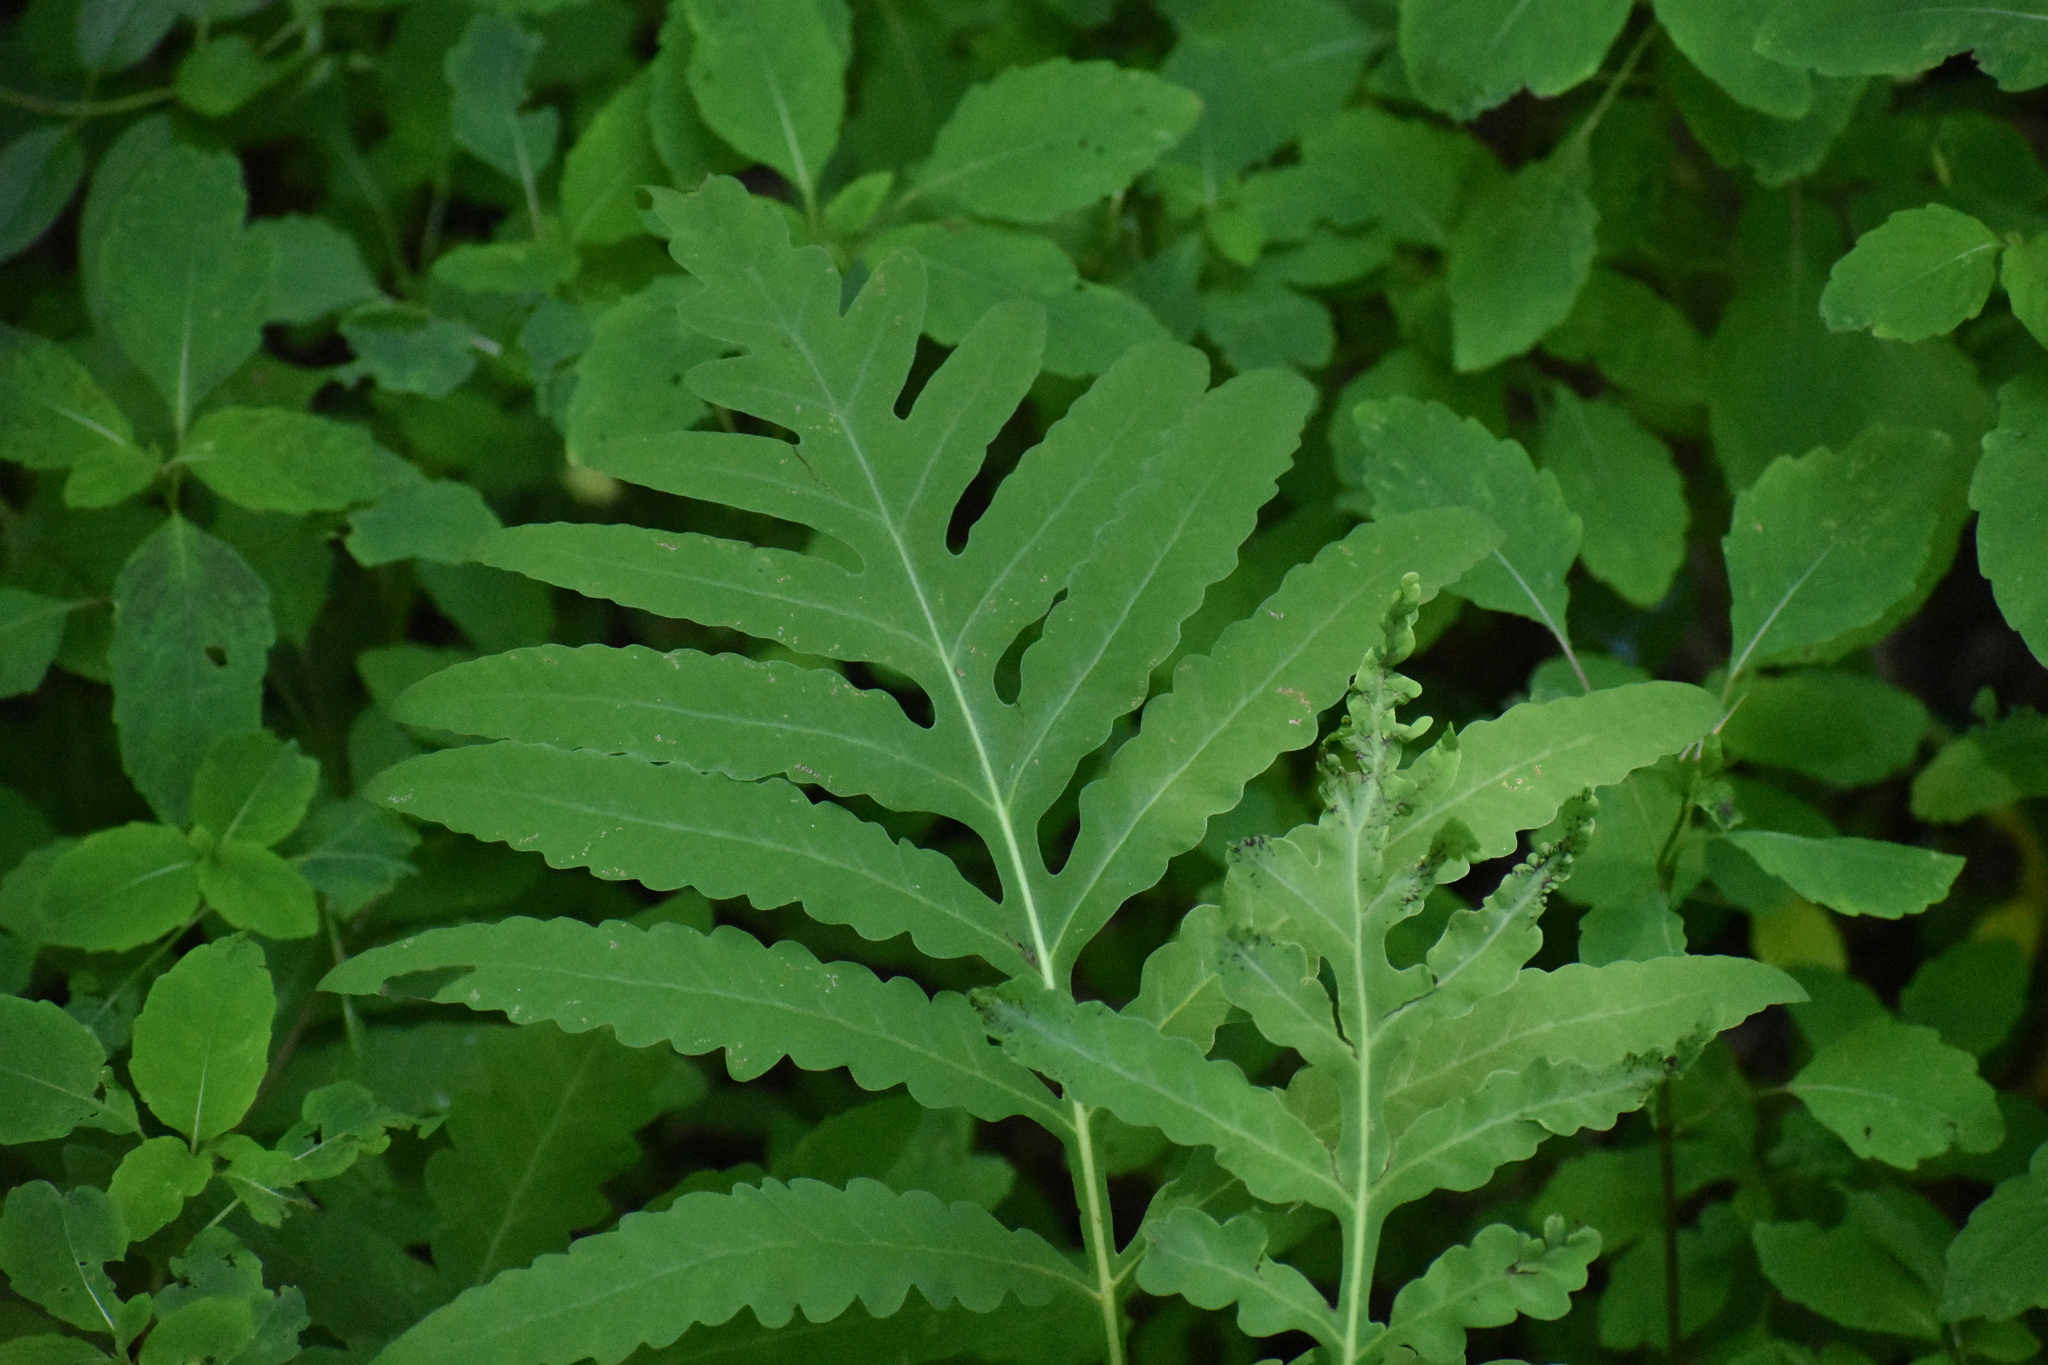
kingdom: Plantae
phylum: Tracheophyta
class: Polypodiopsida
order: Polypodiales
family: Onocleaceae
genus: Onoclea
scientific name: Onoclea sensibilis
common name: Sensitive fern
